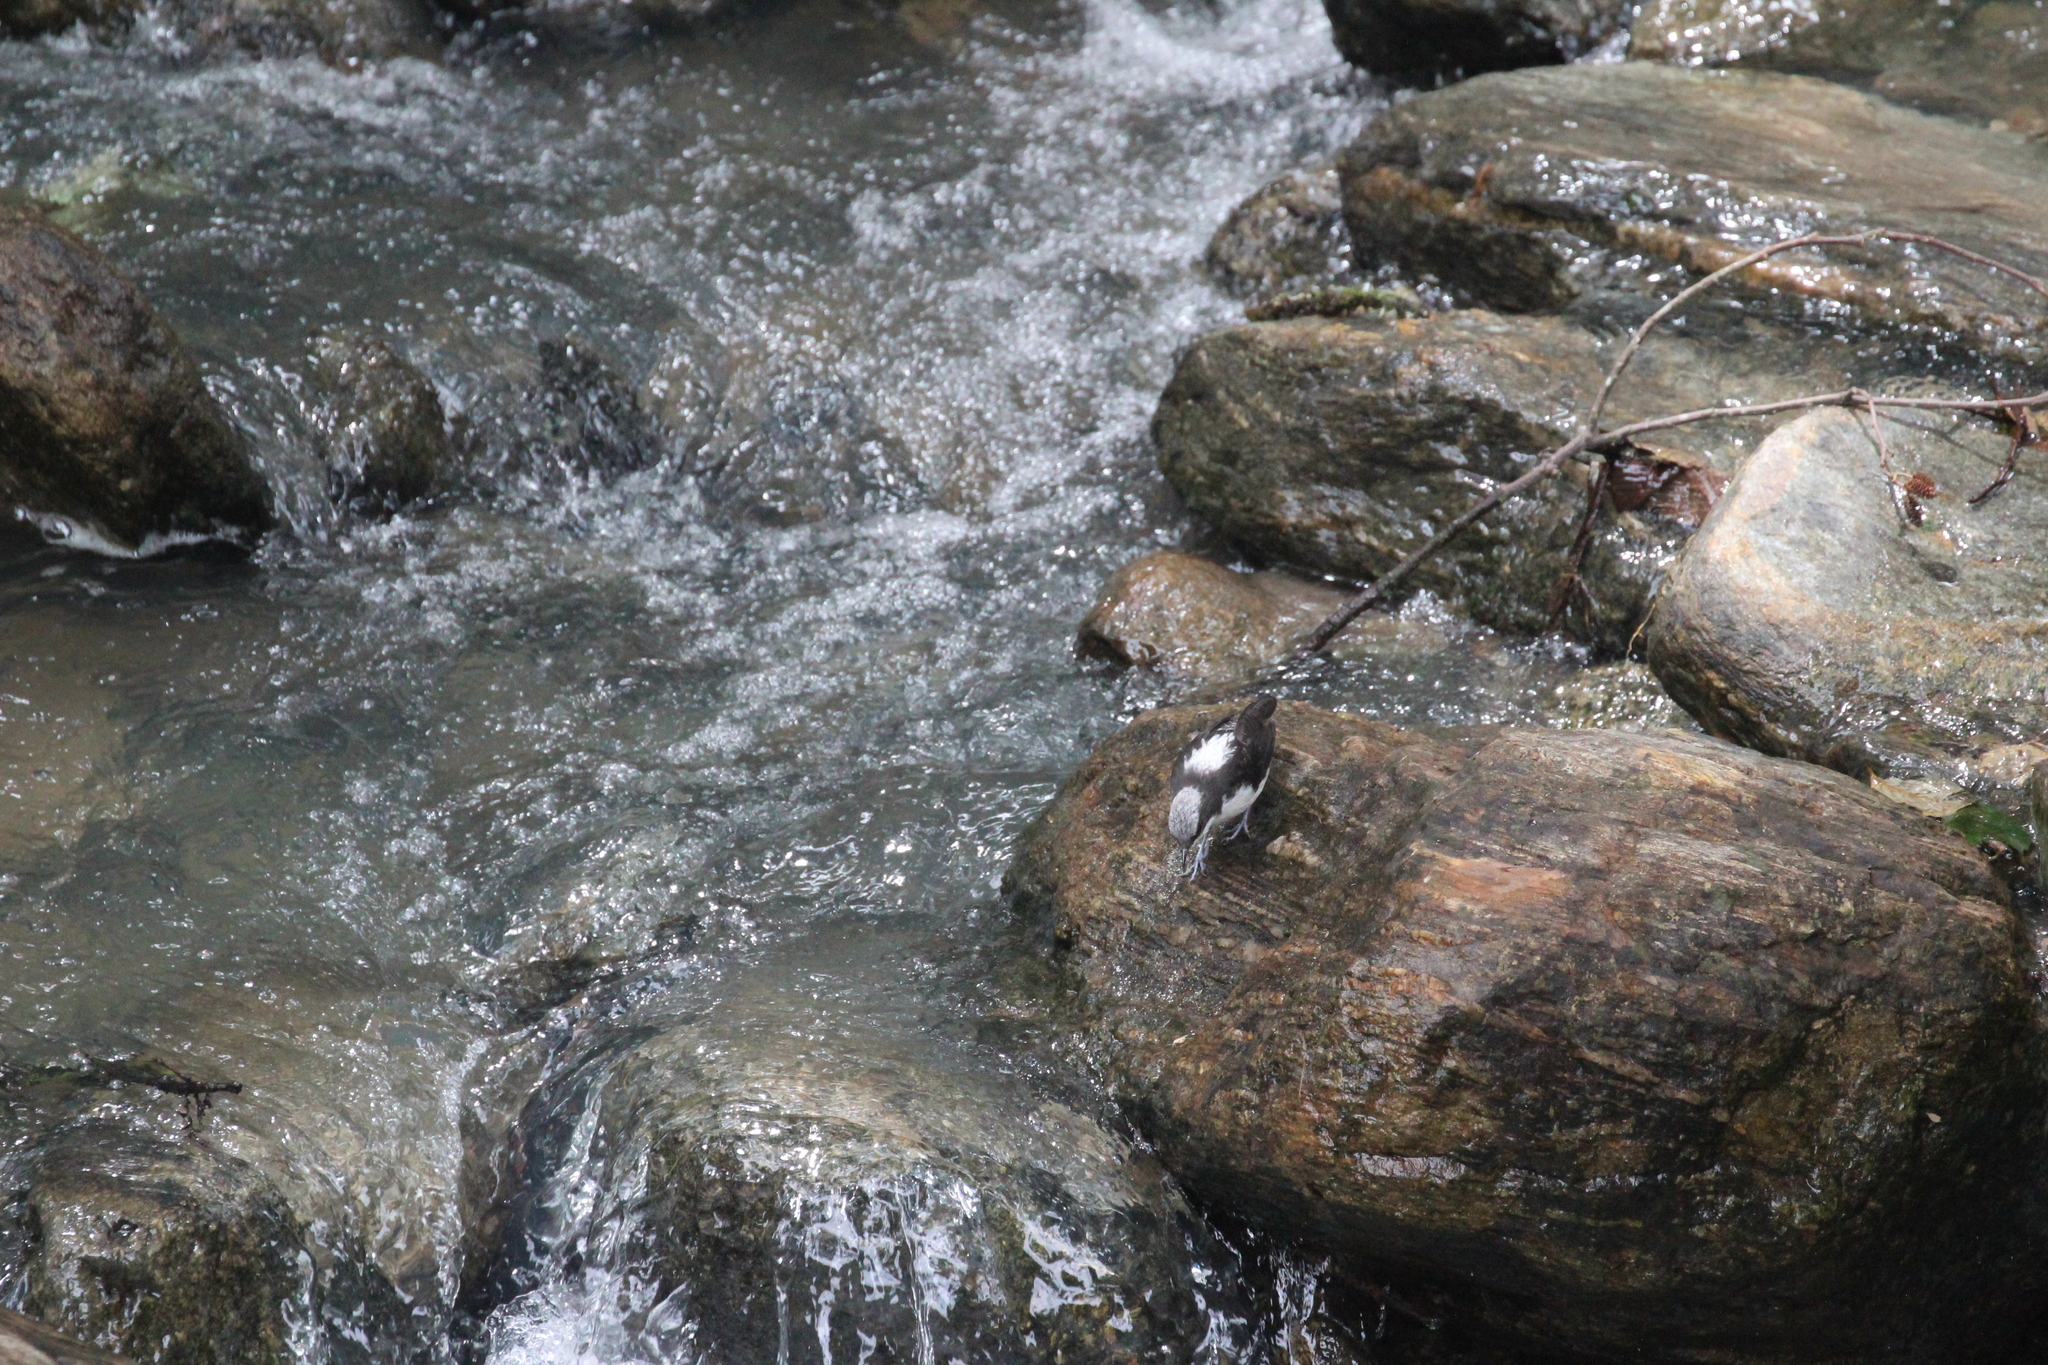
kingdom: Animalia
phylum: Chordata
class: Aves
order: Passeriformes
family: Cinclidae
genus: Cinclus
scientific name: Cinclus leucocephalus
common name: White-capped dipper
